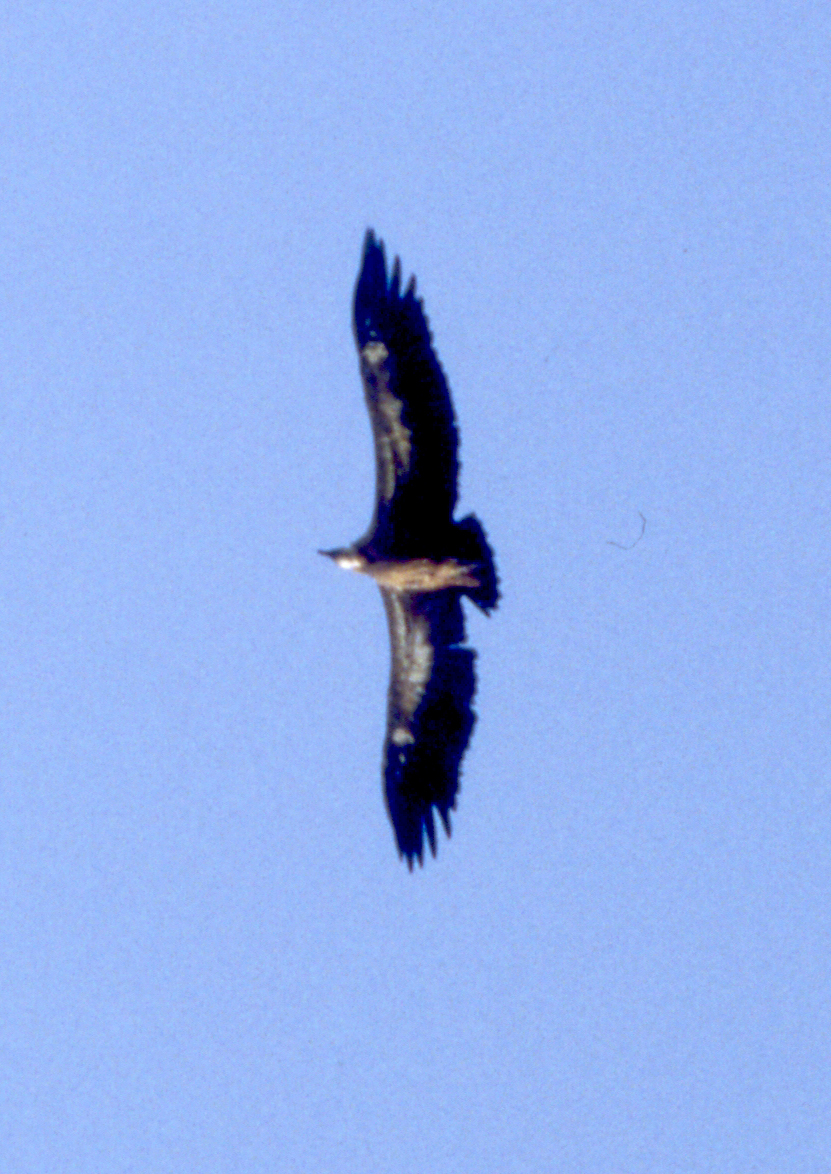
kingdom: Animalia
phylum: Chordata
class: Aves
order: Accipitriformes
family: Accipitridae
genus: Gyps
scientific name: Gyps africanus
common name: White-backed vulture
